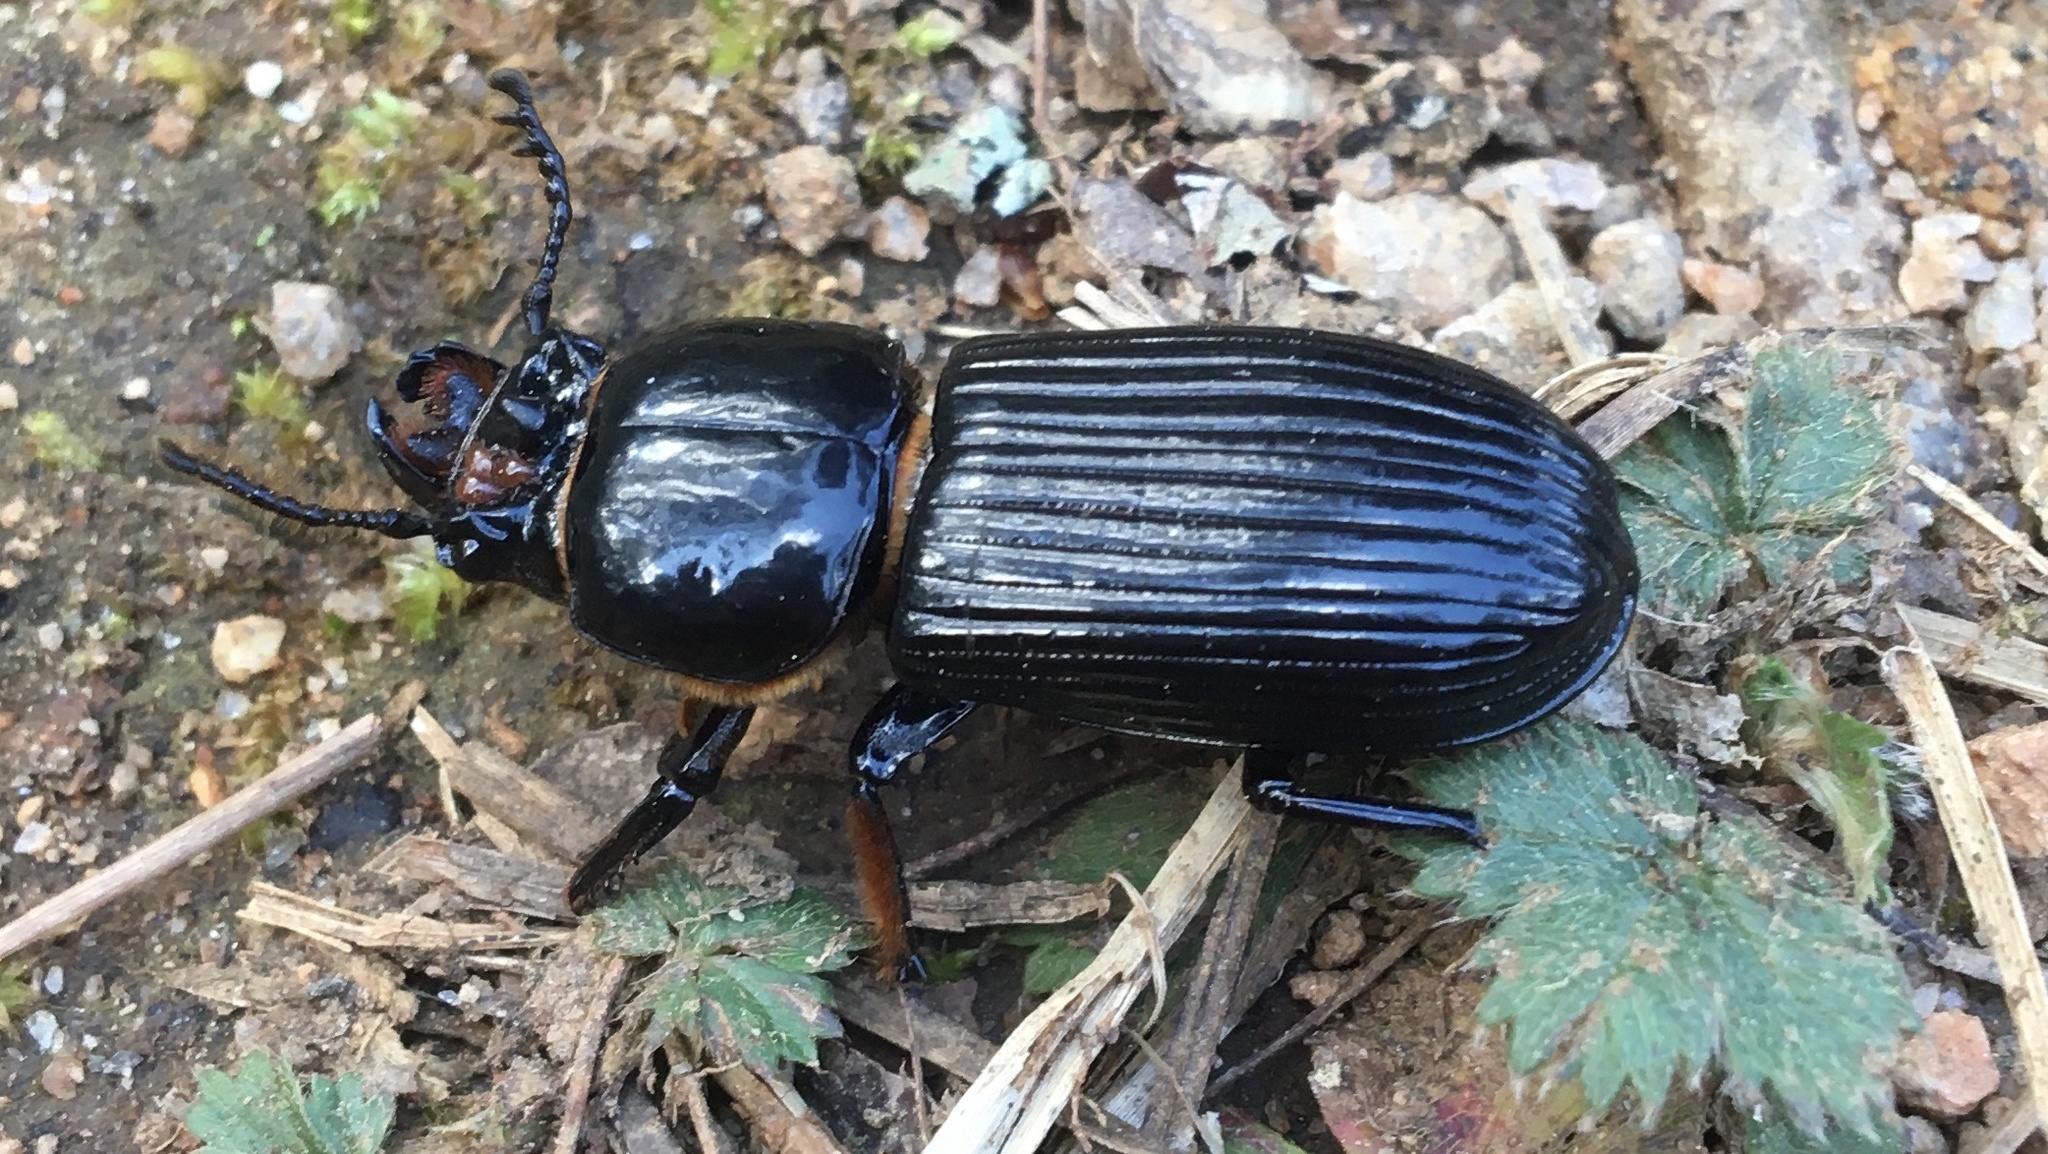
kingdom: Animalia
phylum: Arthropoda
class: Insecta
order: Coleoptera
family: Passalidae
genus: Odontotaenius
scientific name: Odontotaenius disjunctus
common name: Patent leather beetle
